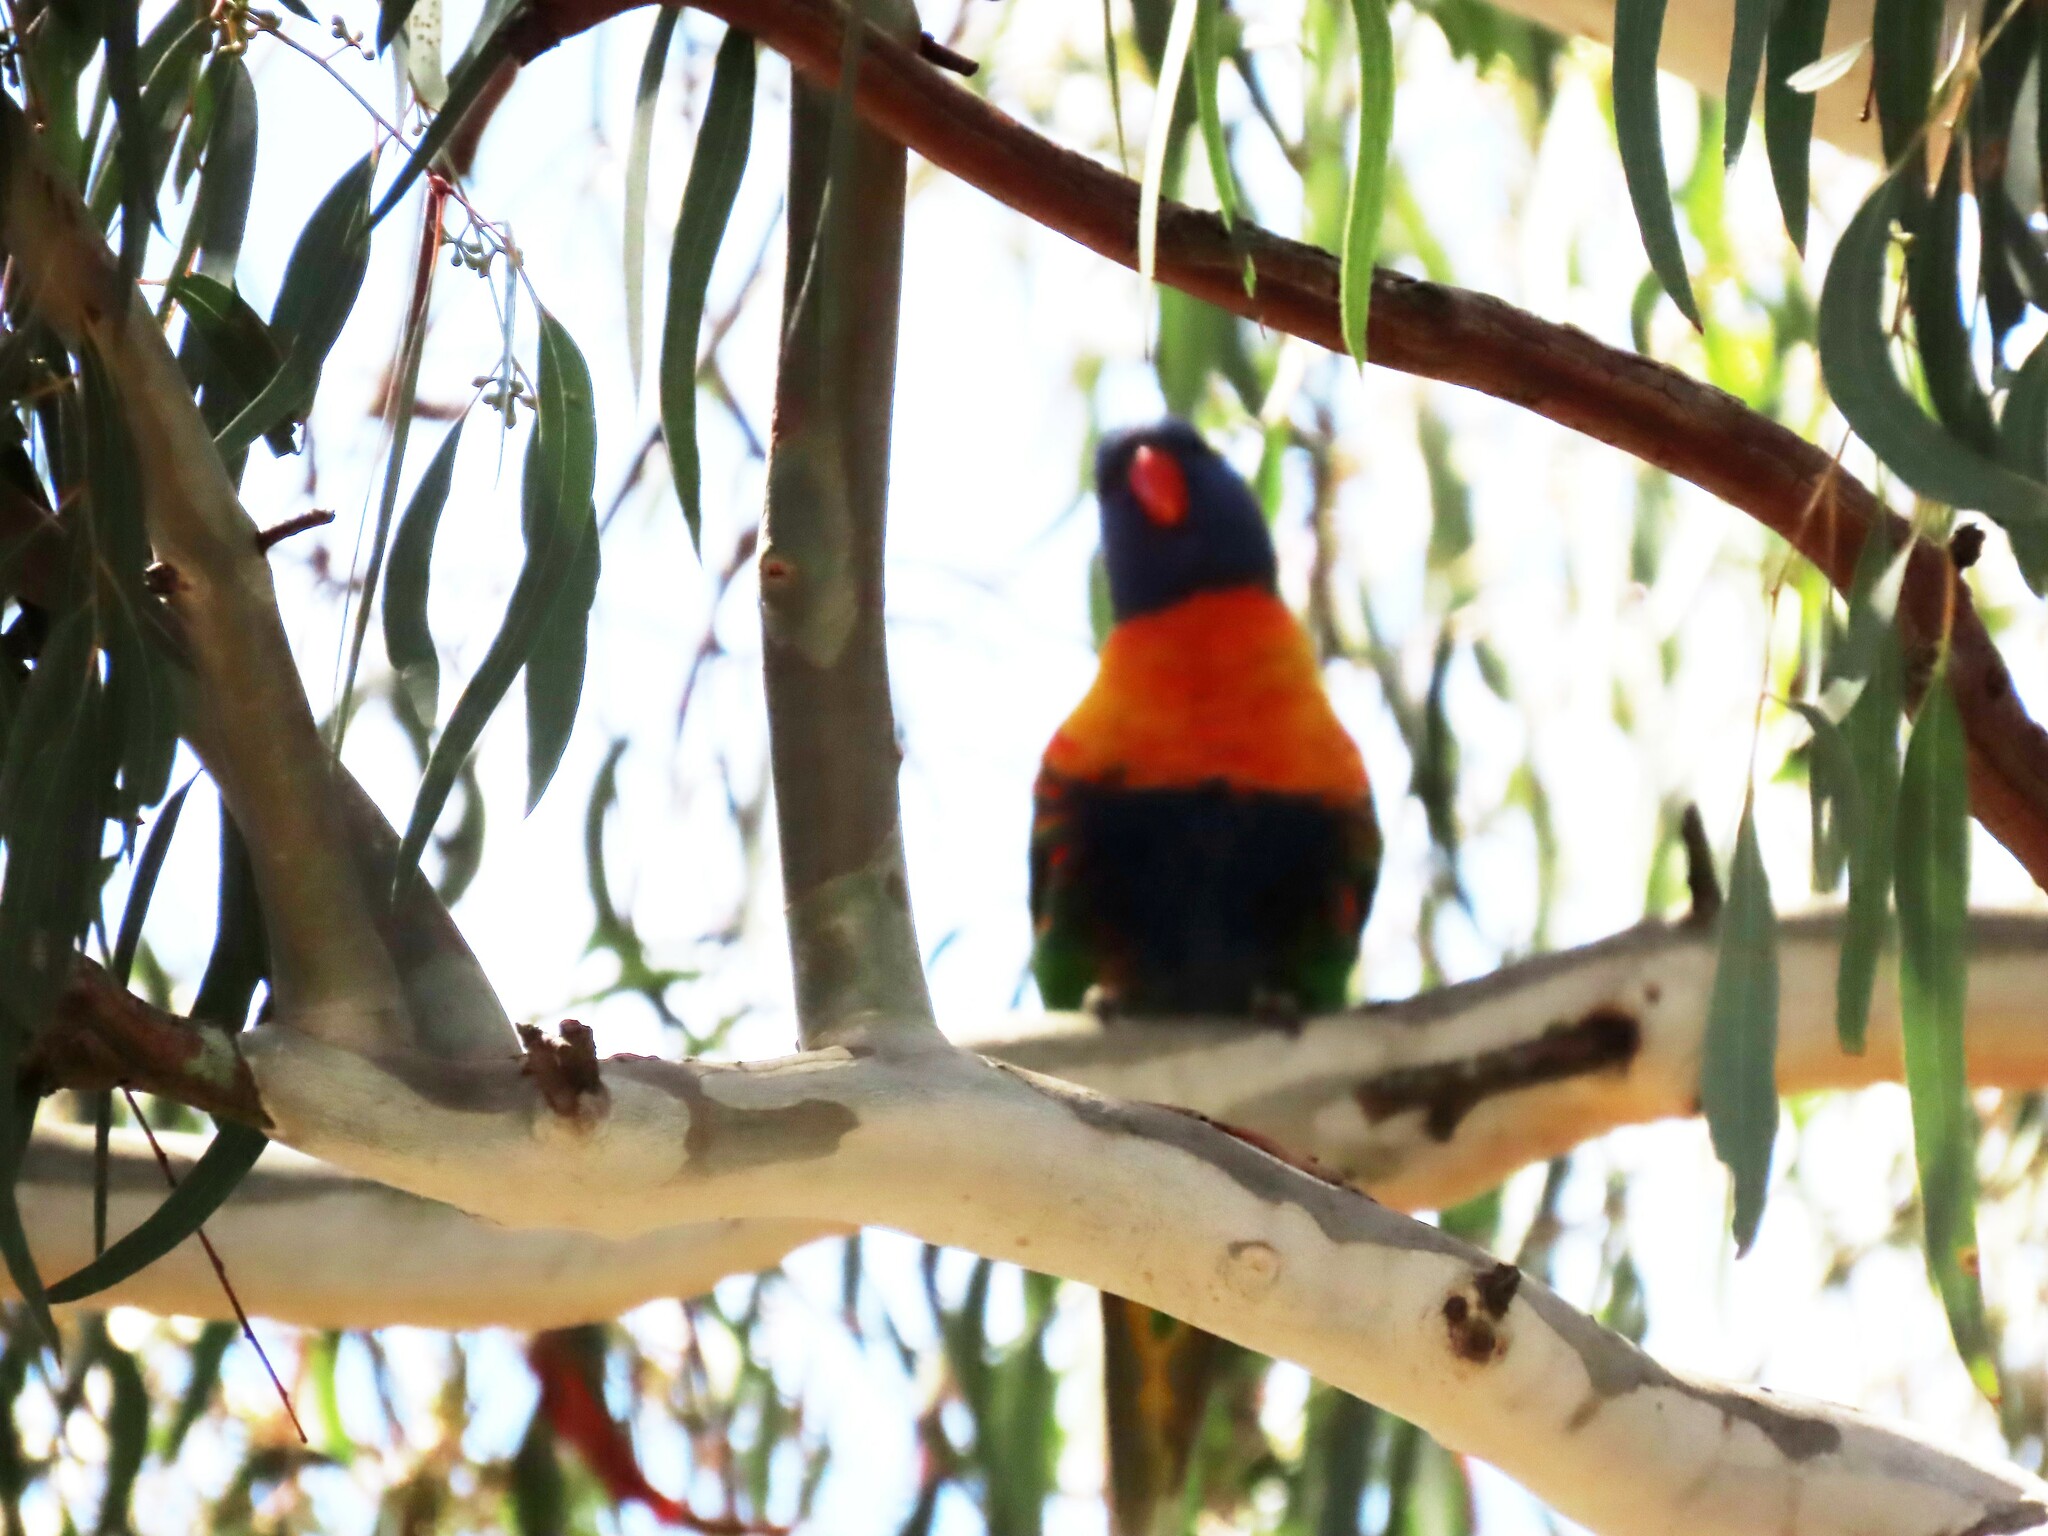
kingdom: Animalia
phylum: Chordata
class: Aves
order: Psittaciformes
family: Psittacidae
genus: Trichoglossus
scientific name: Trichoglossus haematodus
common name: Coconut lorikeet
